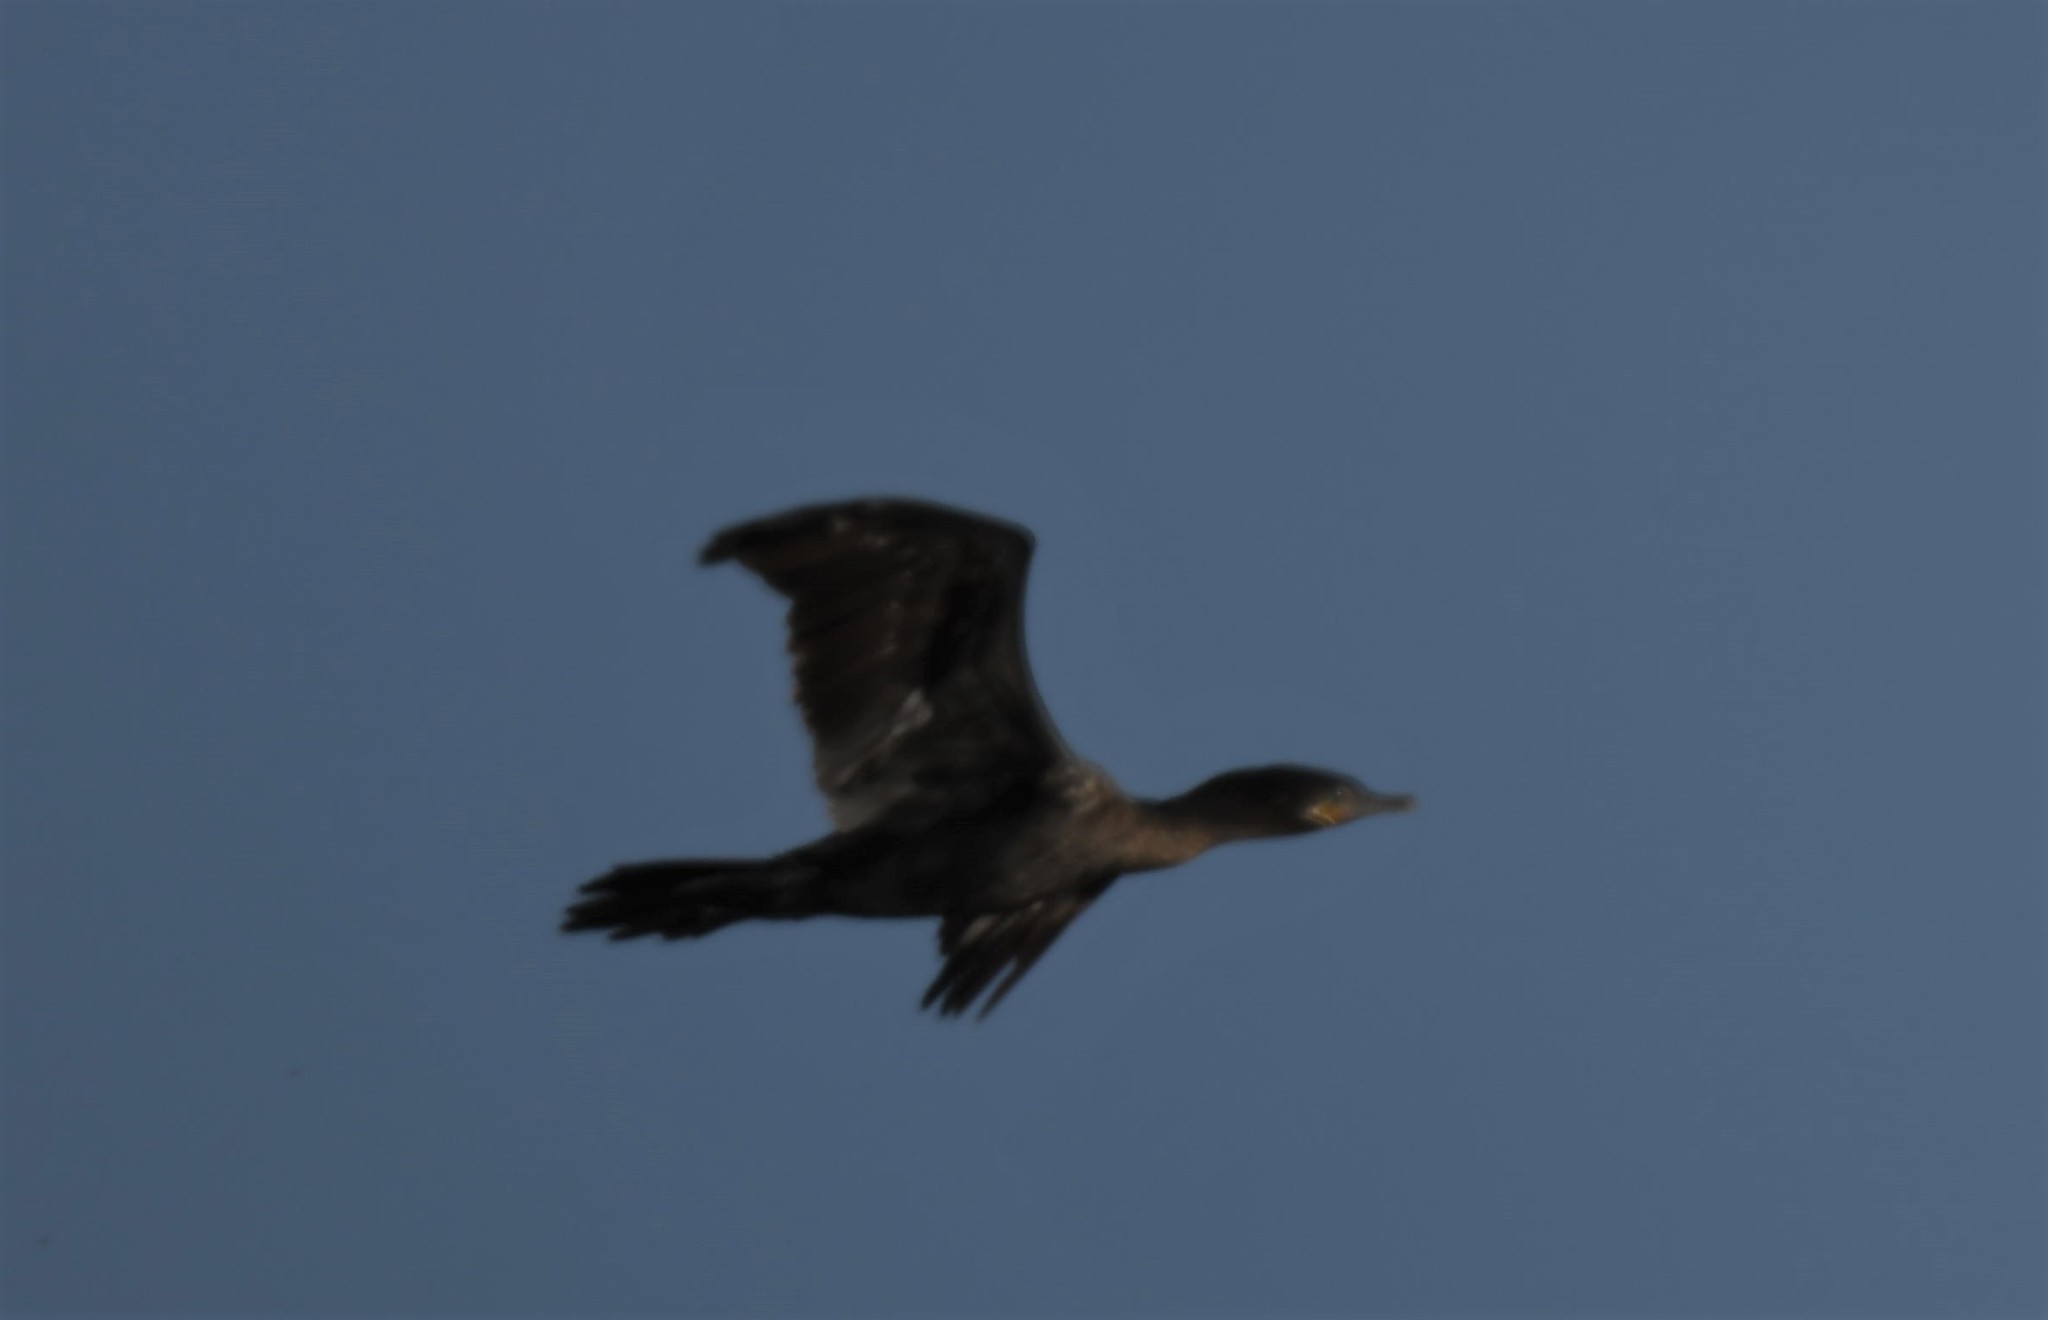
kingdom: Animalia
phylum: Chordata
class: Aves
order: Suliformes
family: Phalacrocoracidae
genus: Phalacrocorax
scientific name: Phalacrocorax brasilianus
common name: Neotropic cormorant
